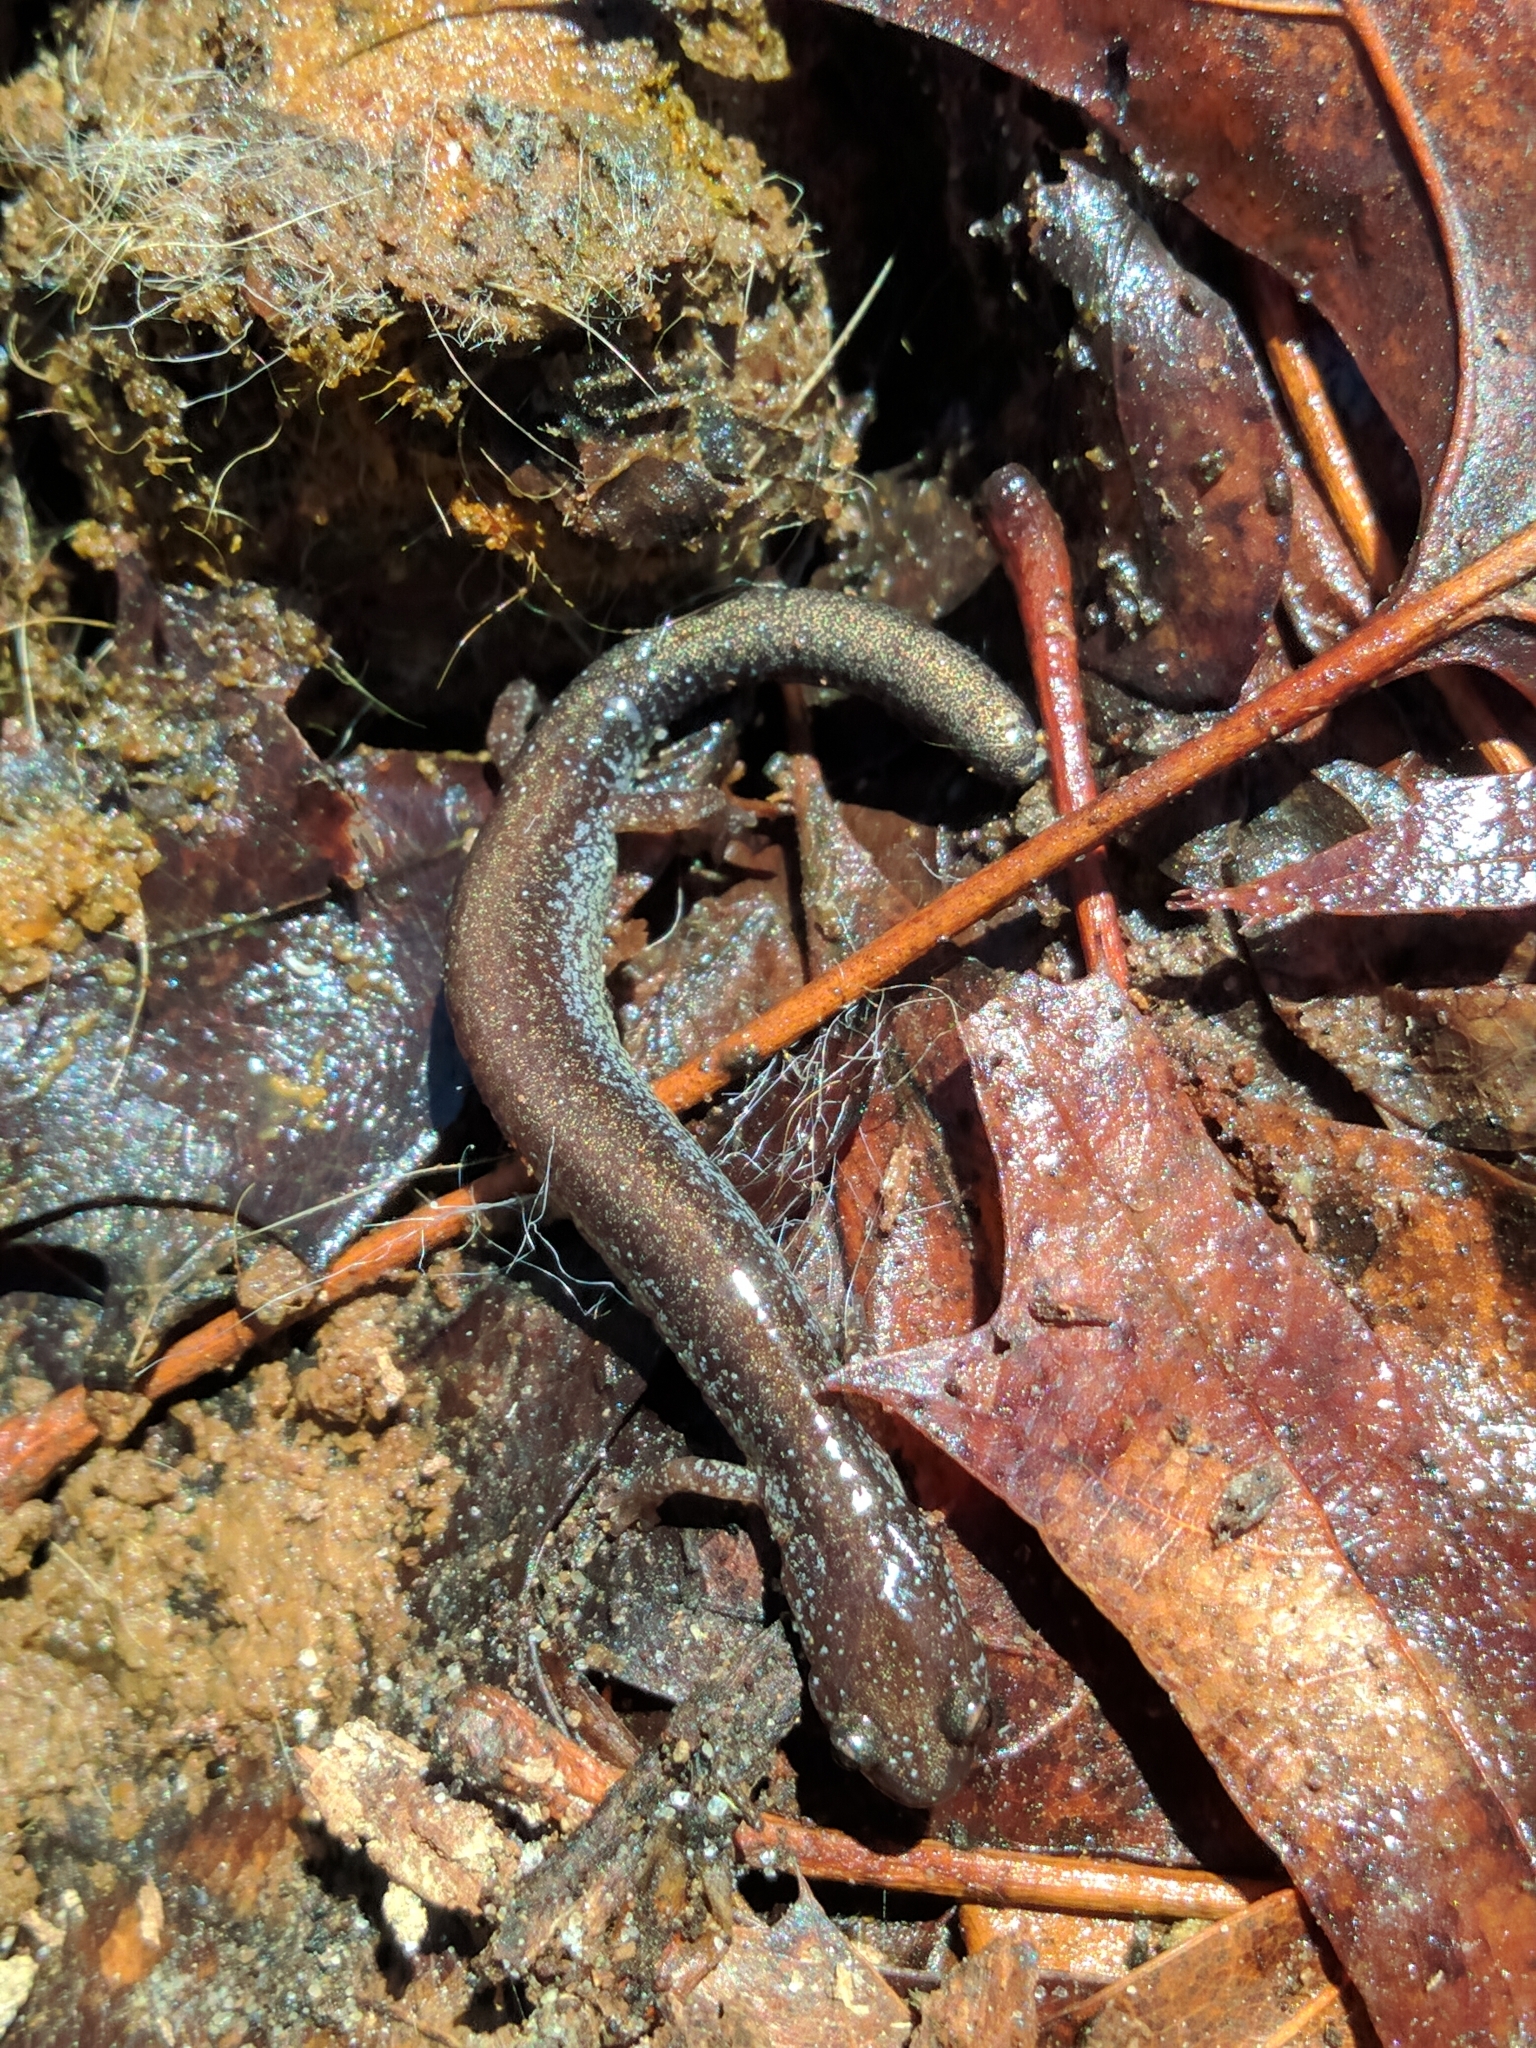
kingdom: Animalia
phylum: Chordata
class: Amphibia
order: Caudata
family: Plethodontidae
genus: Plethodon
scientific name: Plethodon cinereus
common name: Redback salamander
